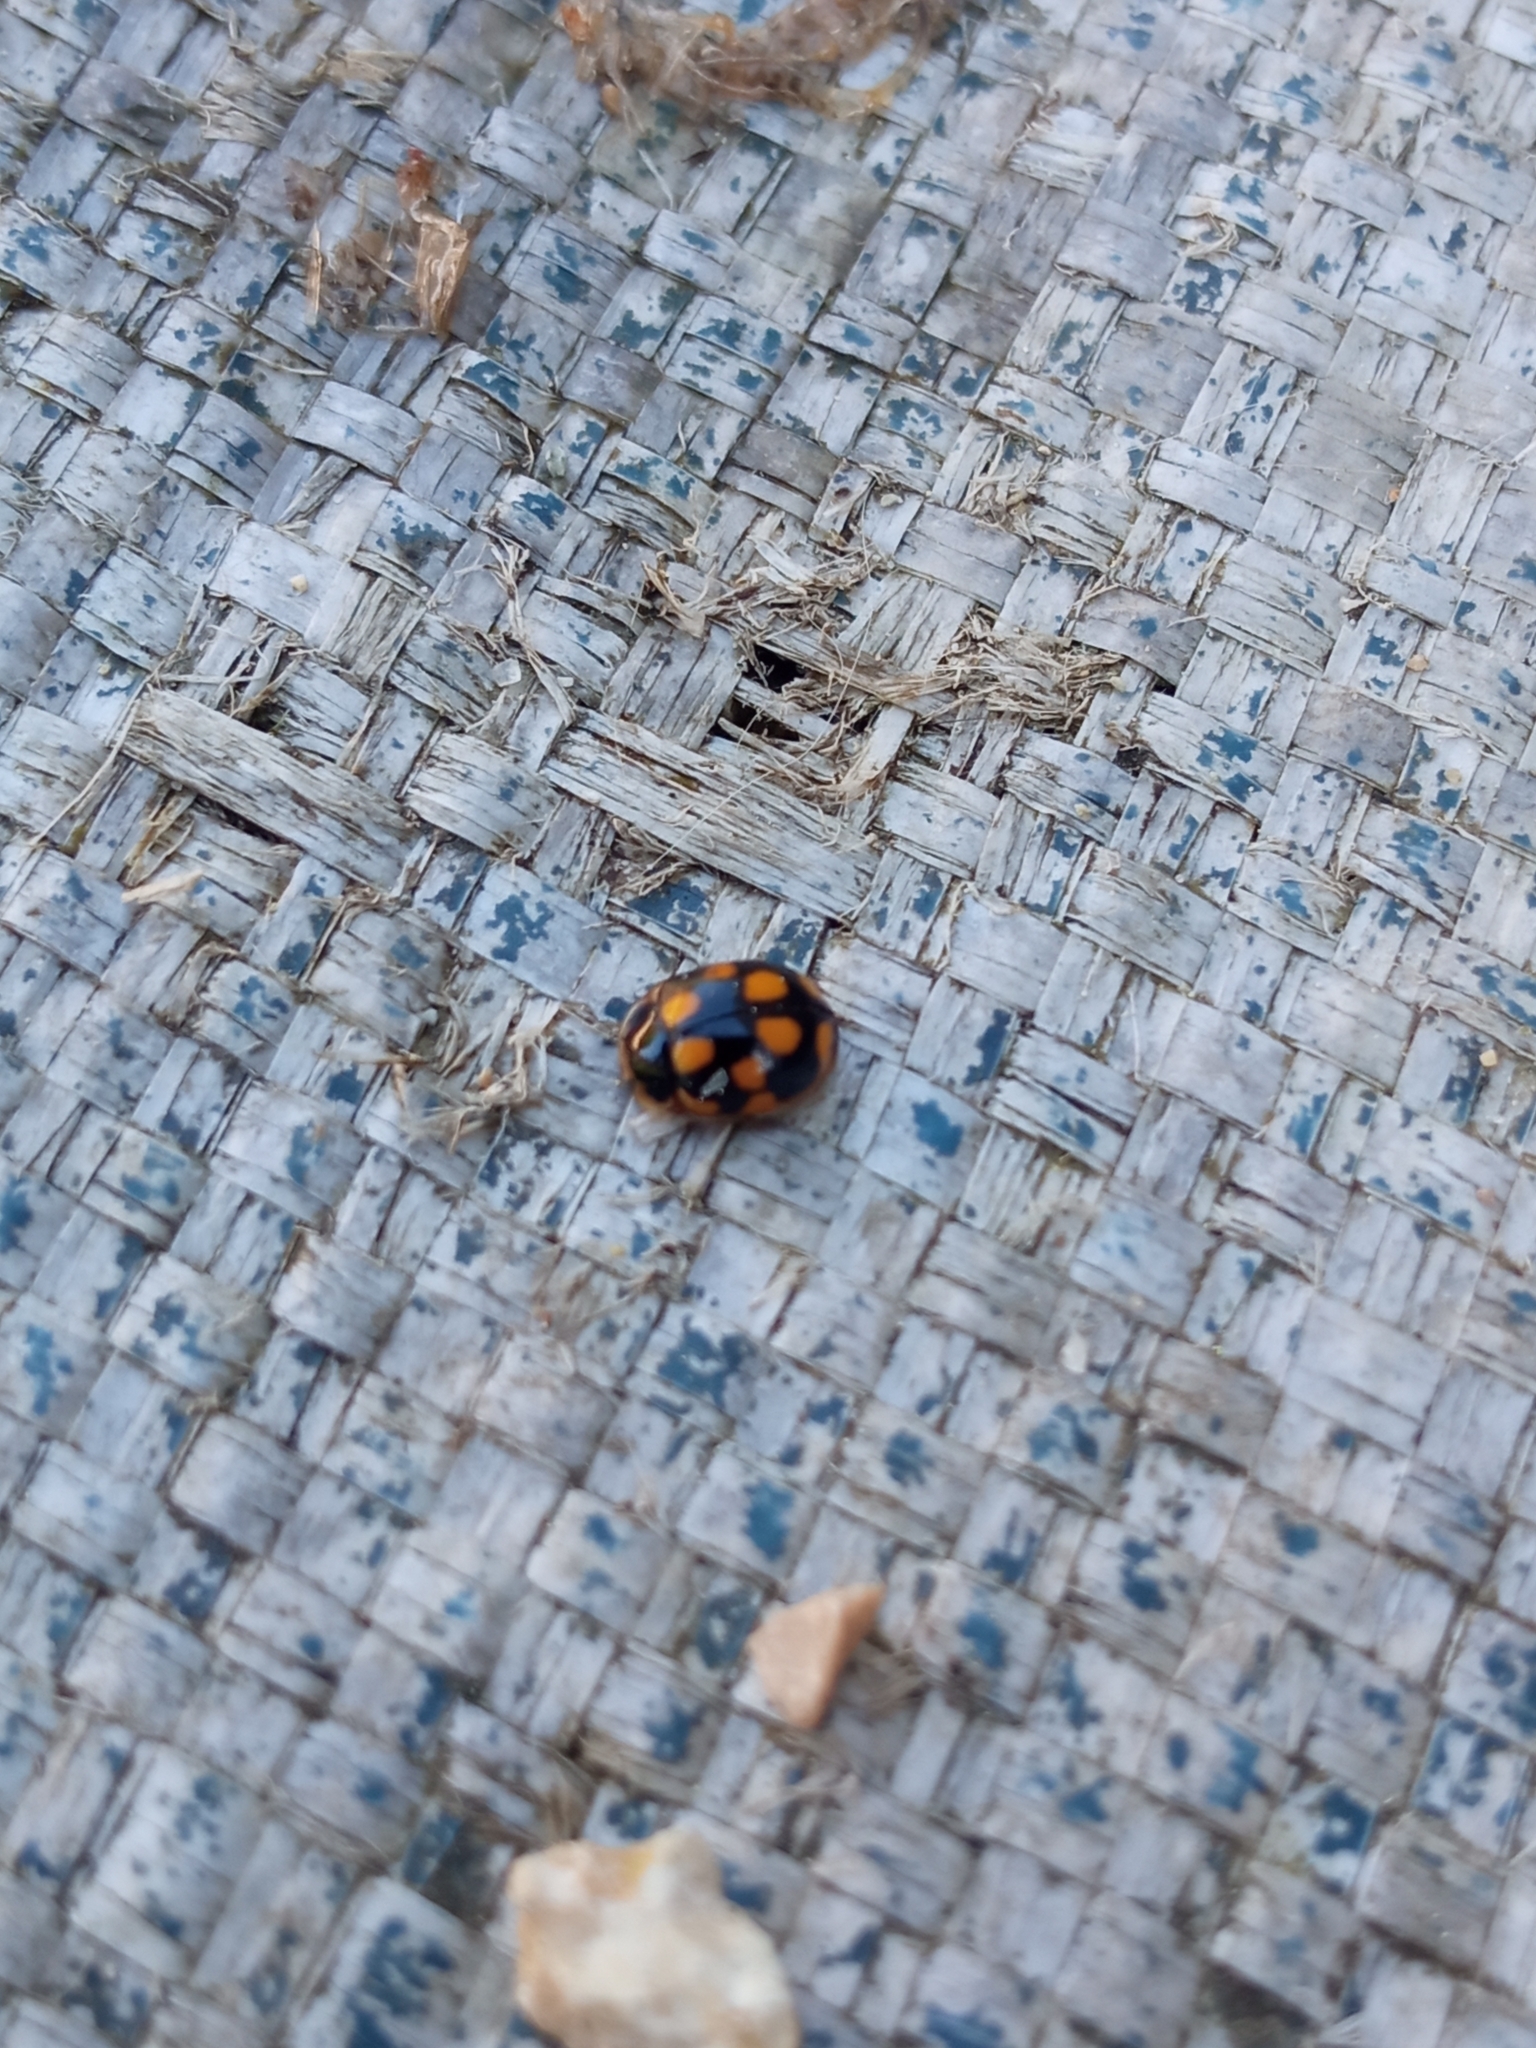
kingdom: Animalia
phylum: Arthropoda
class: Insecta
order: Coleoptera
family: Coccinellidae
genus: Propylaea
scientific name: Propylaea quatuordecimpunctata
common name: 14-spotted ladybird beetle
